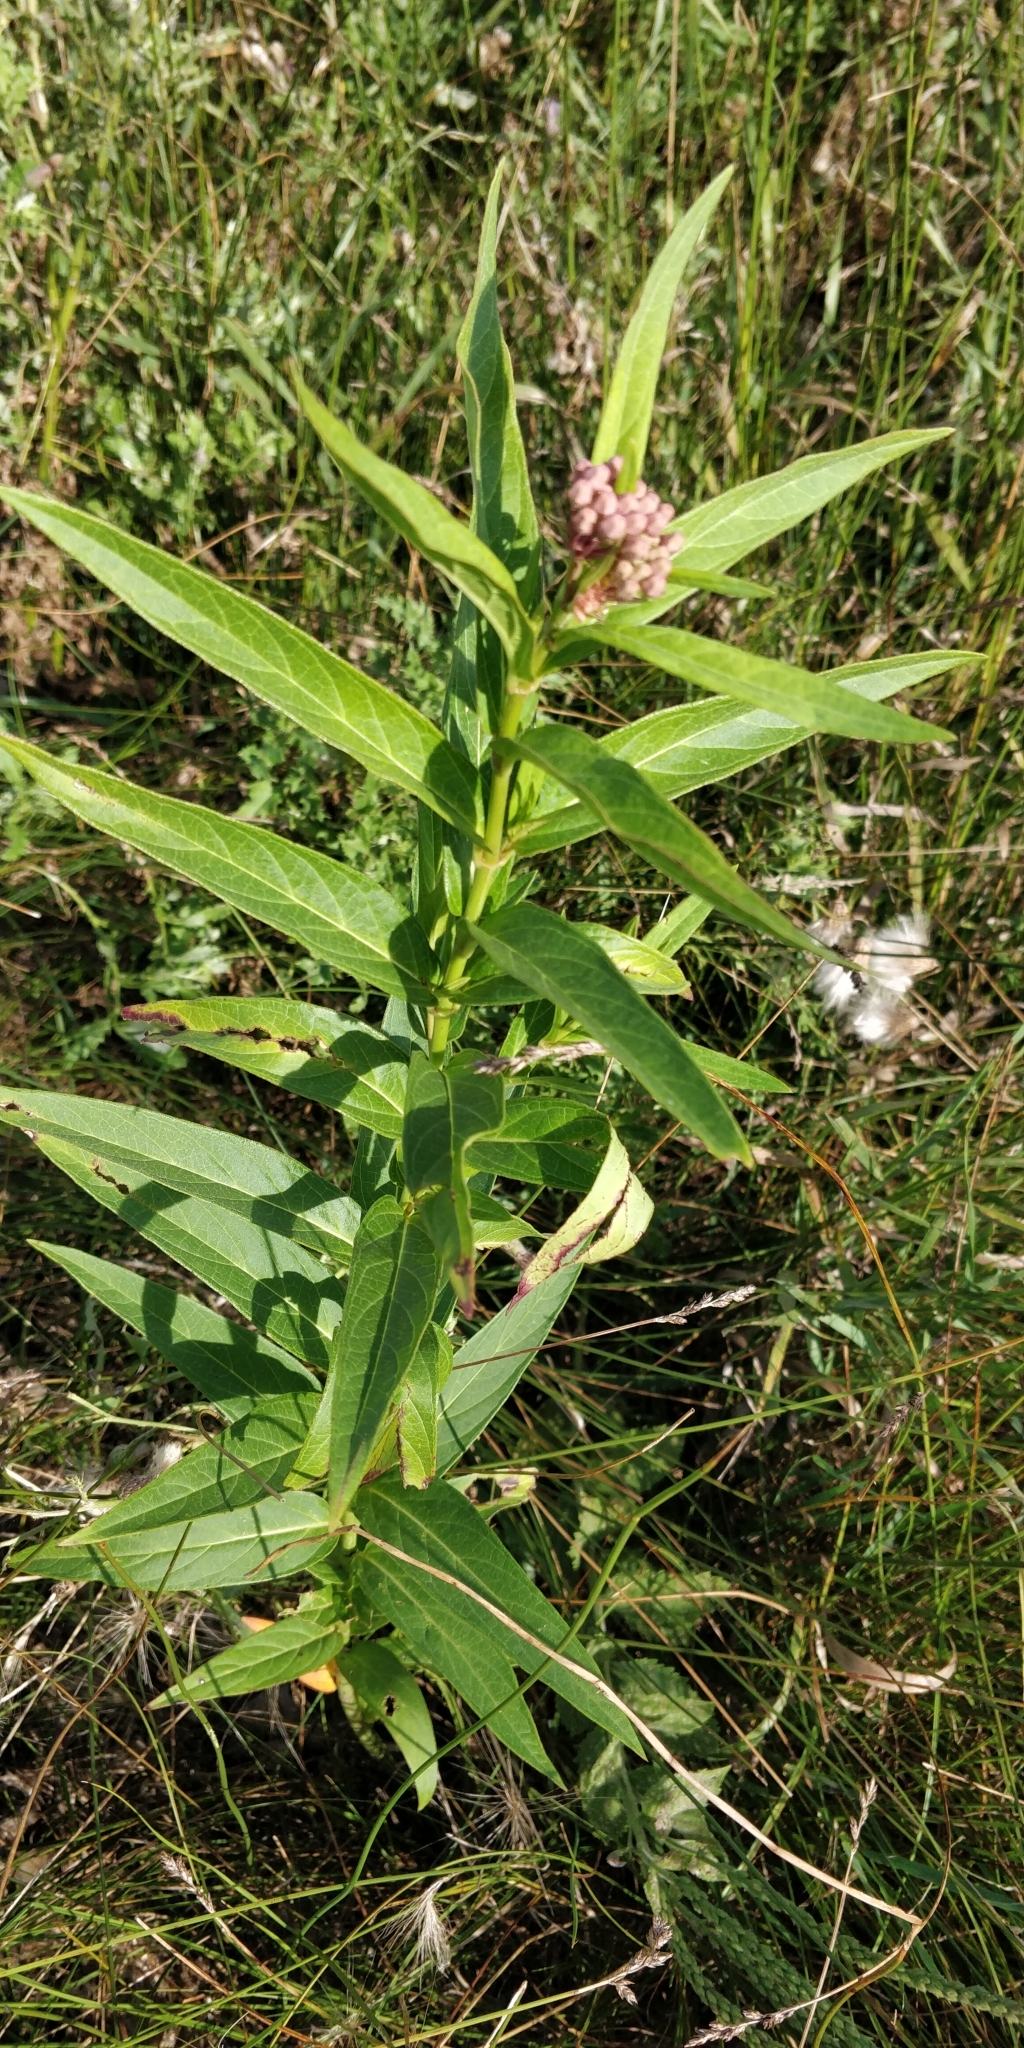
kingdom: Plantae
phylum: Tracheophyta
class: Magnoliopsida
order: Gentianales
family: Apocynaceae
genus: Asclepias
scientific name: Asclepias incarnata
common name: Swamp milkweed
